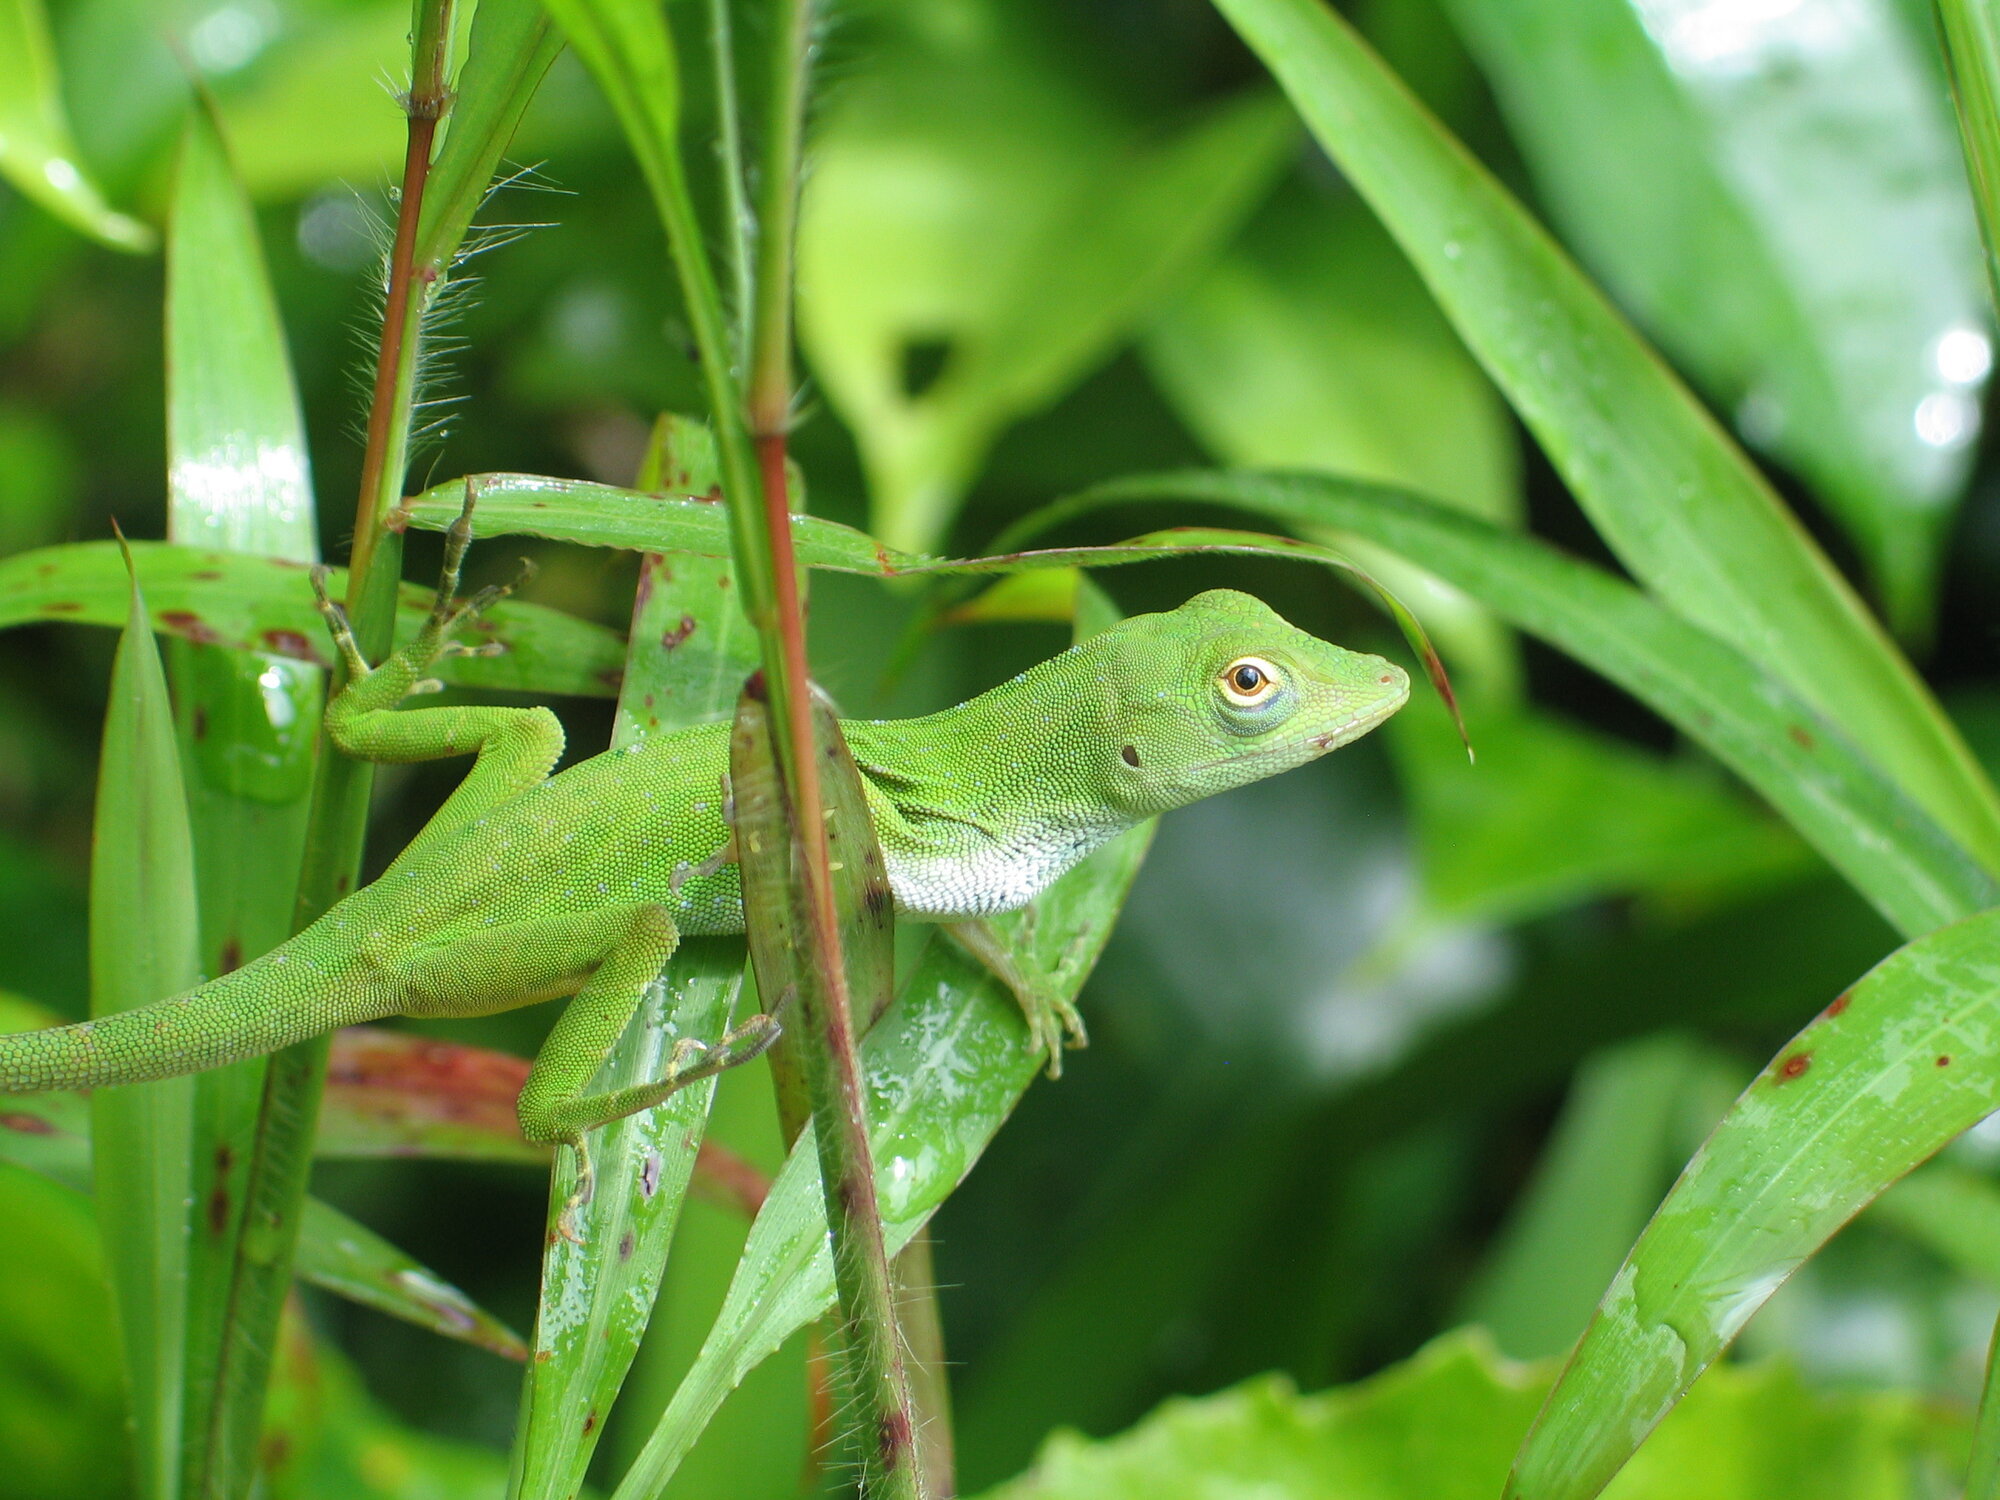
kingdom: Animalia
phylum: Chordata
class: Squamata
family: Dactyloidae
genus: Anolis
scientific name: Anolis biporcatus
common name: Giant green anole
